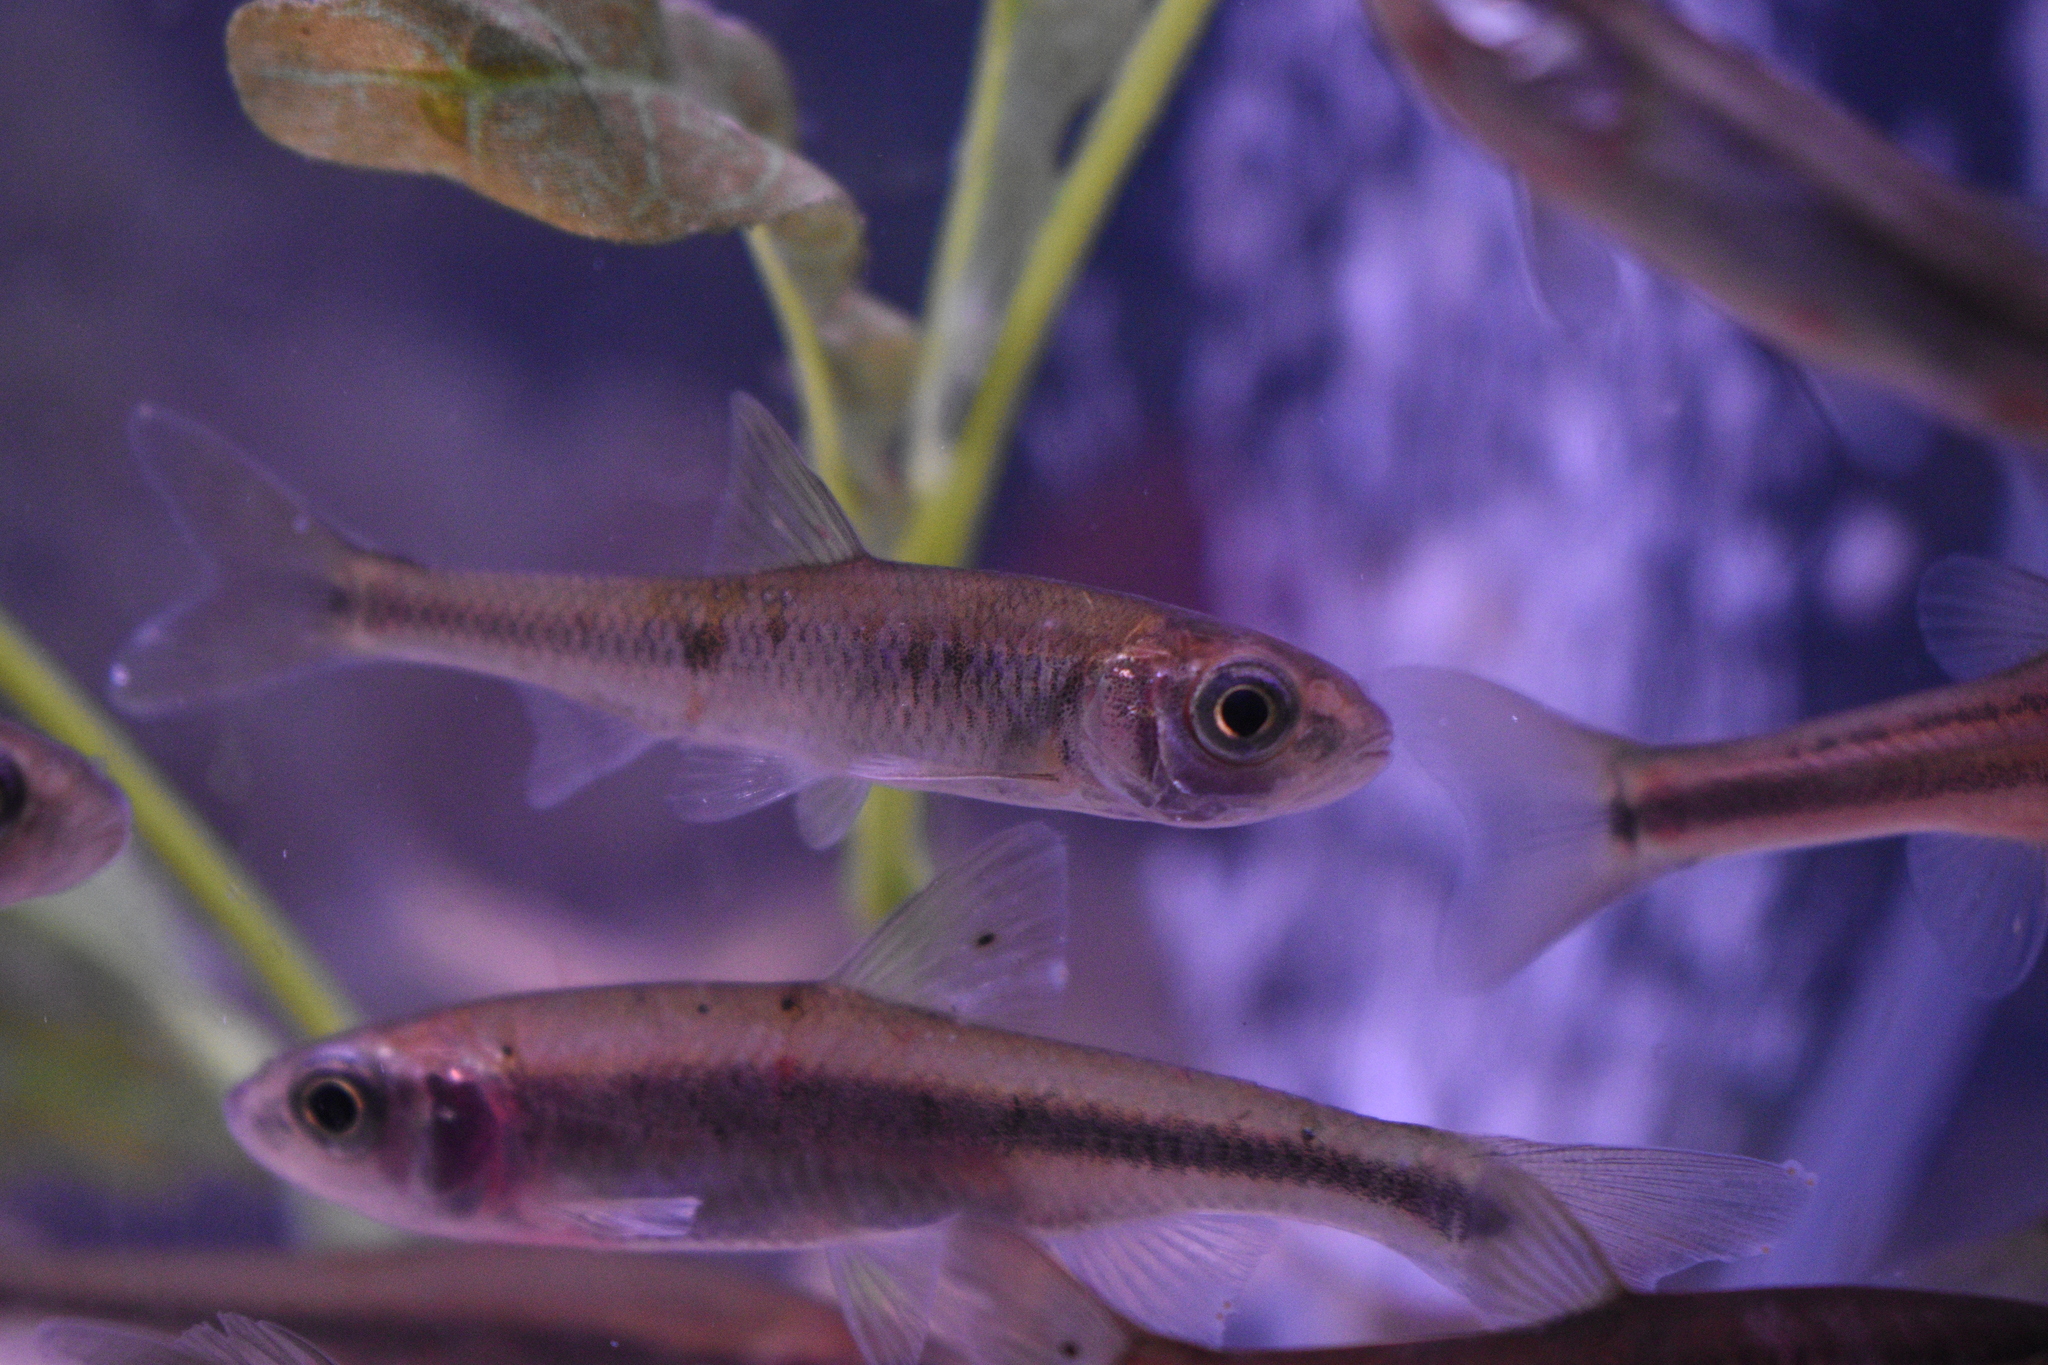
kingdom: Animalia
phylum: Chordata
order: Cypriniformes
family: Cyprinidae
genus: Luxilus
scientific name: Luxilus cornutus
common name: Common shiner
